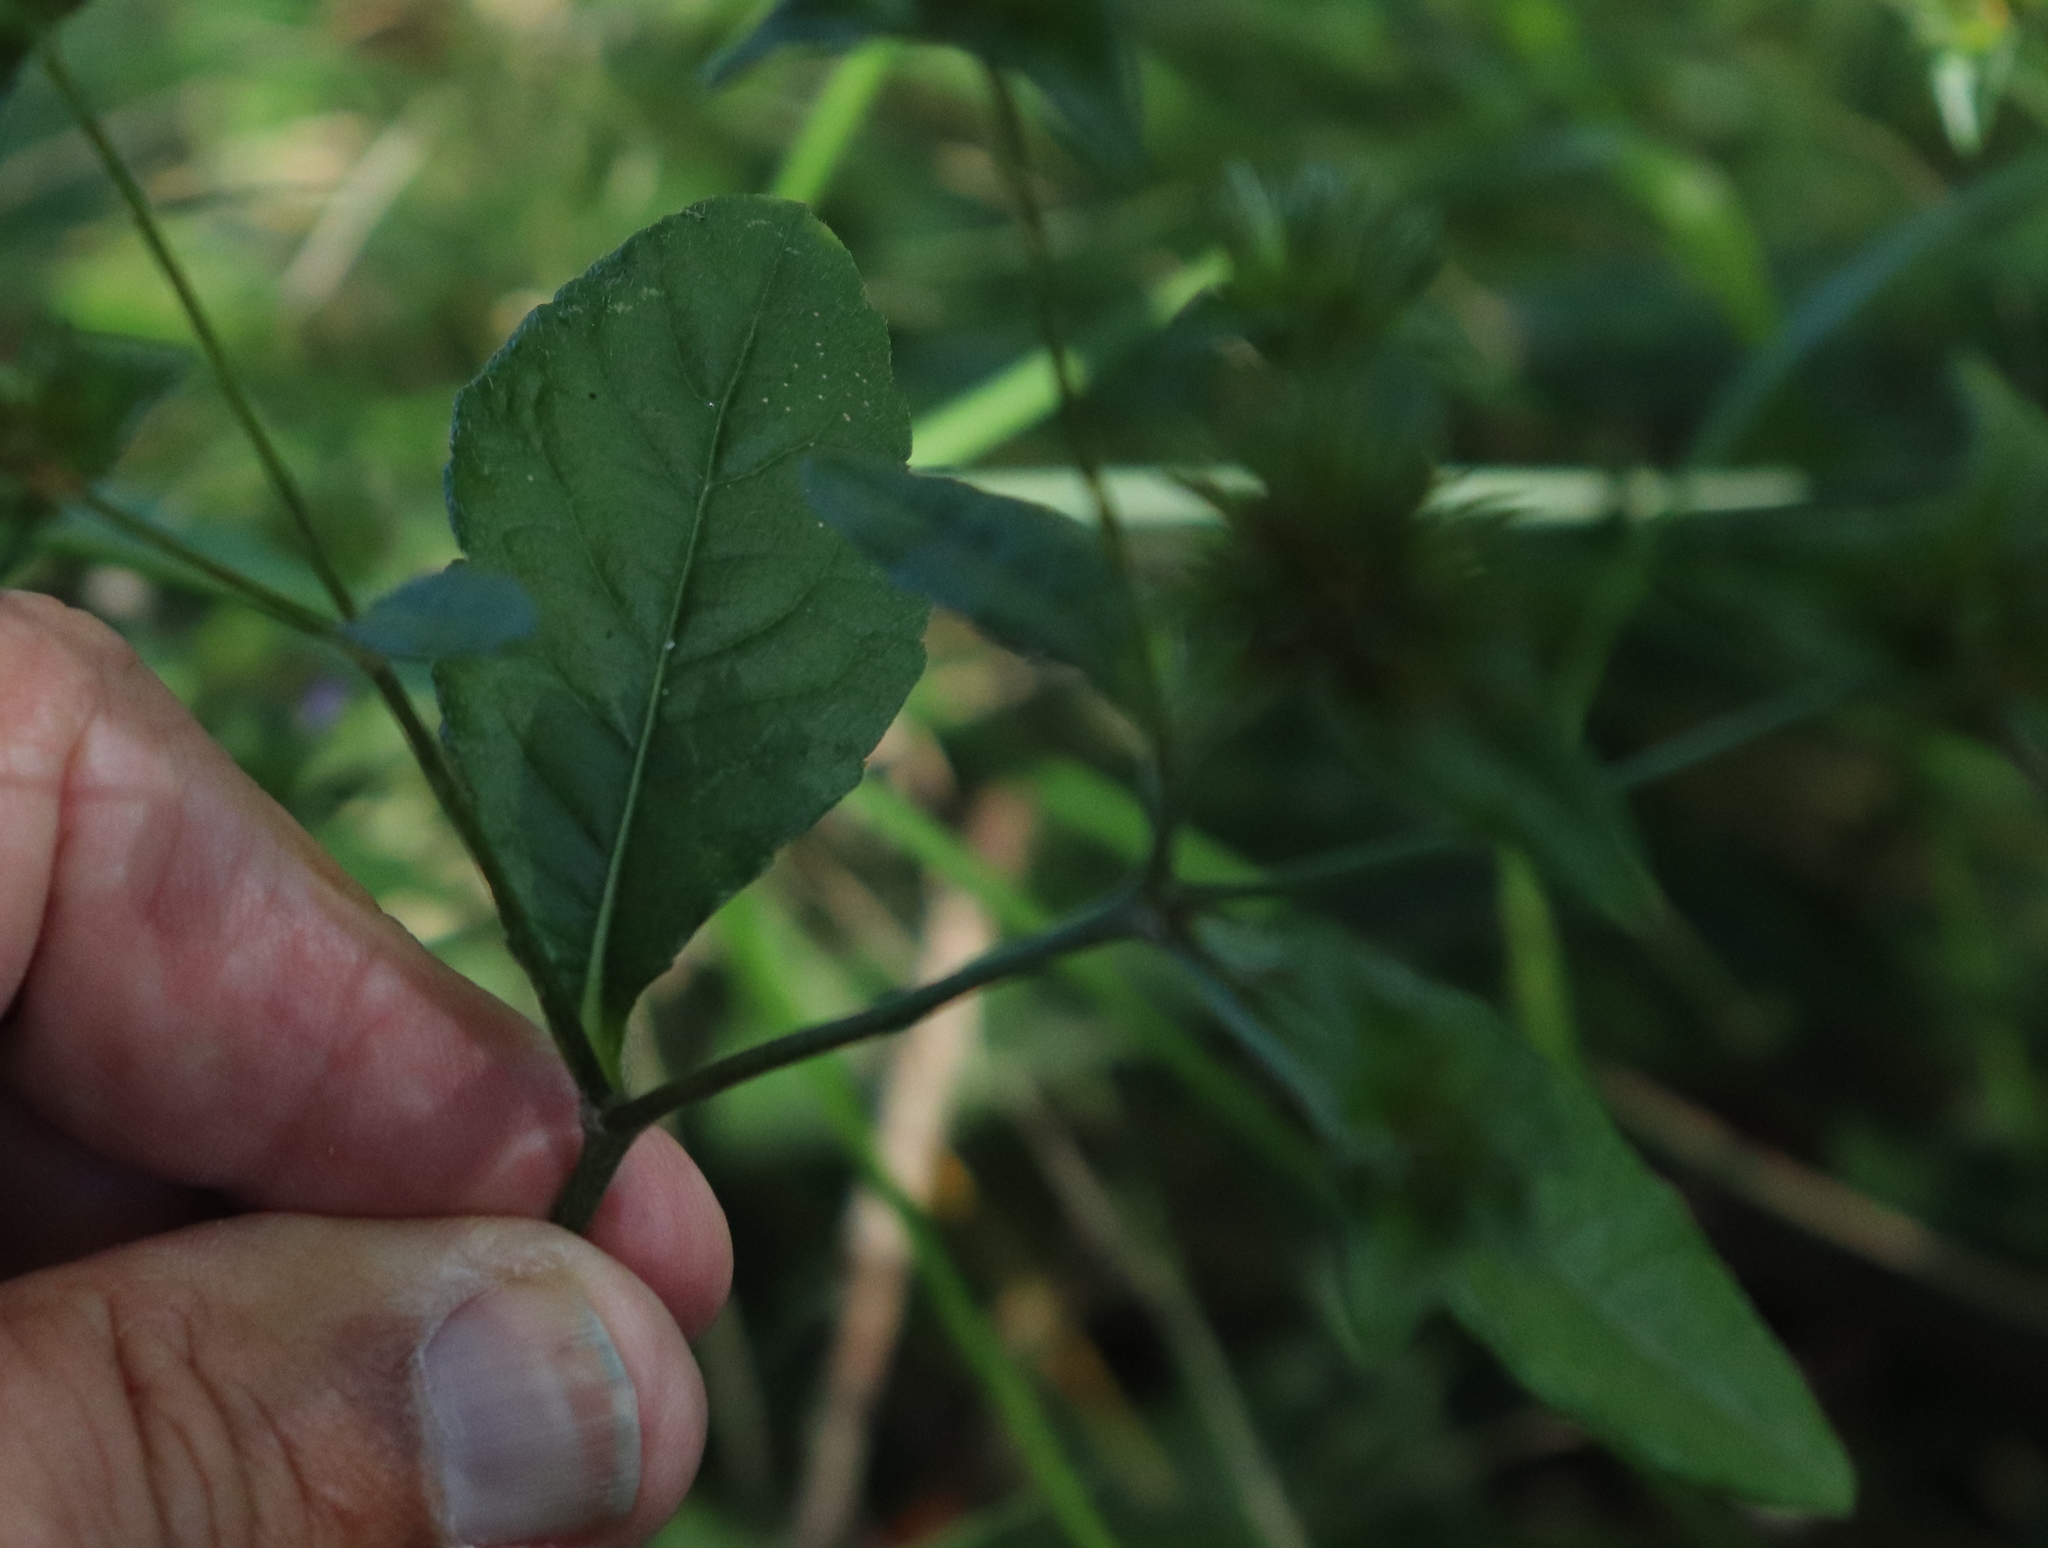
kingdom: Plantae
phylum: Tracheophyta
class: Magnoliopsida
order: Asterales
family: Asteraceae
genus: Elephantopus
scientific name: Elephantopus carolinianus
